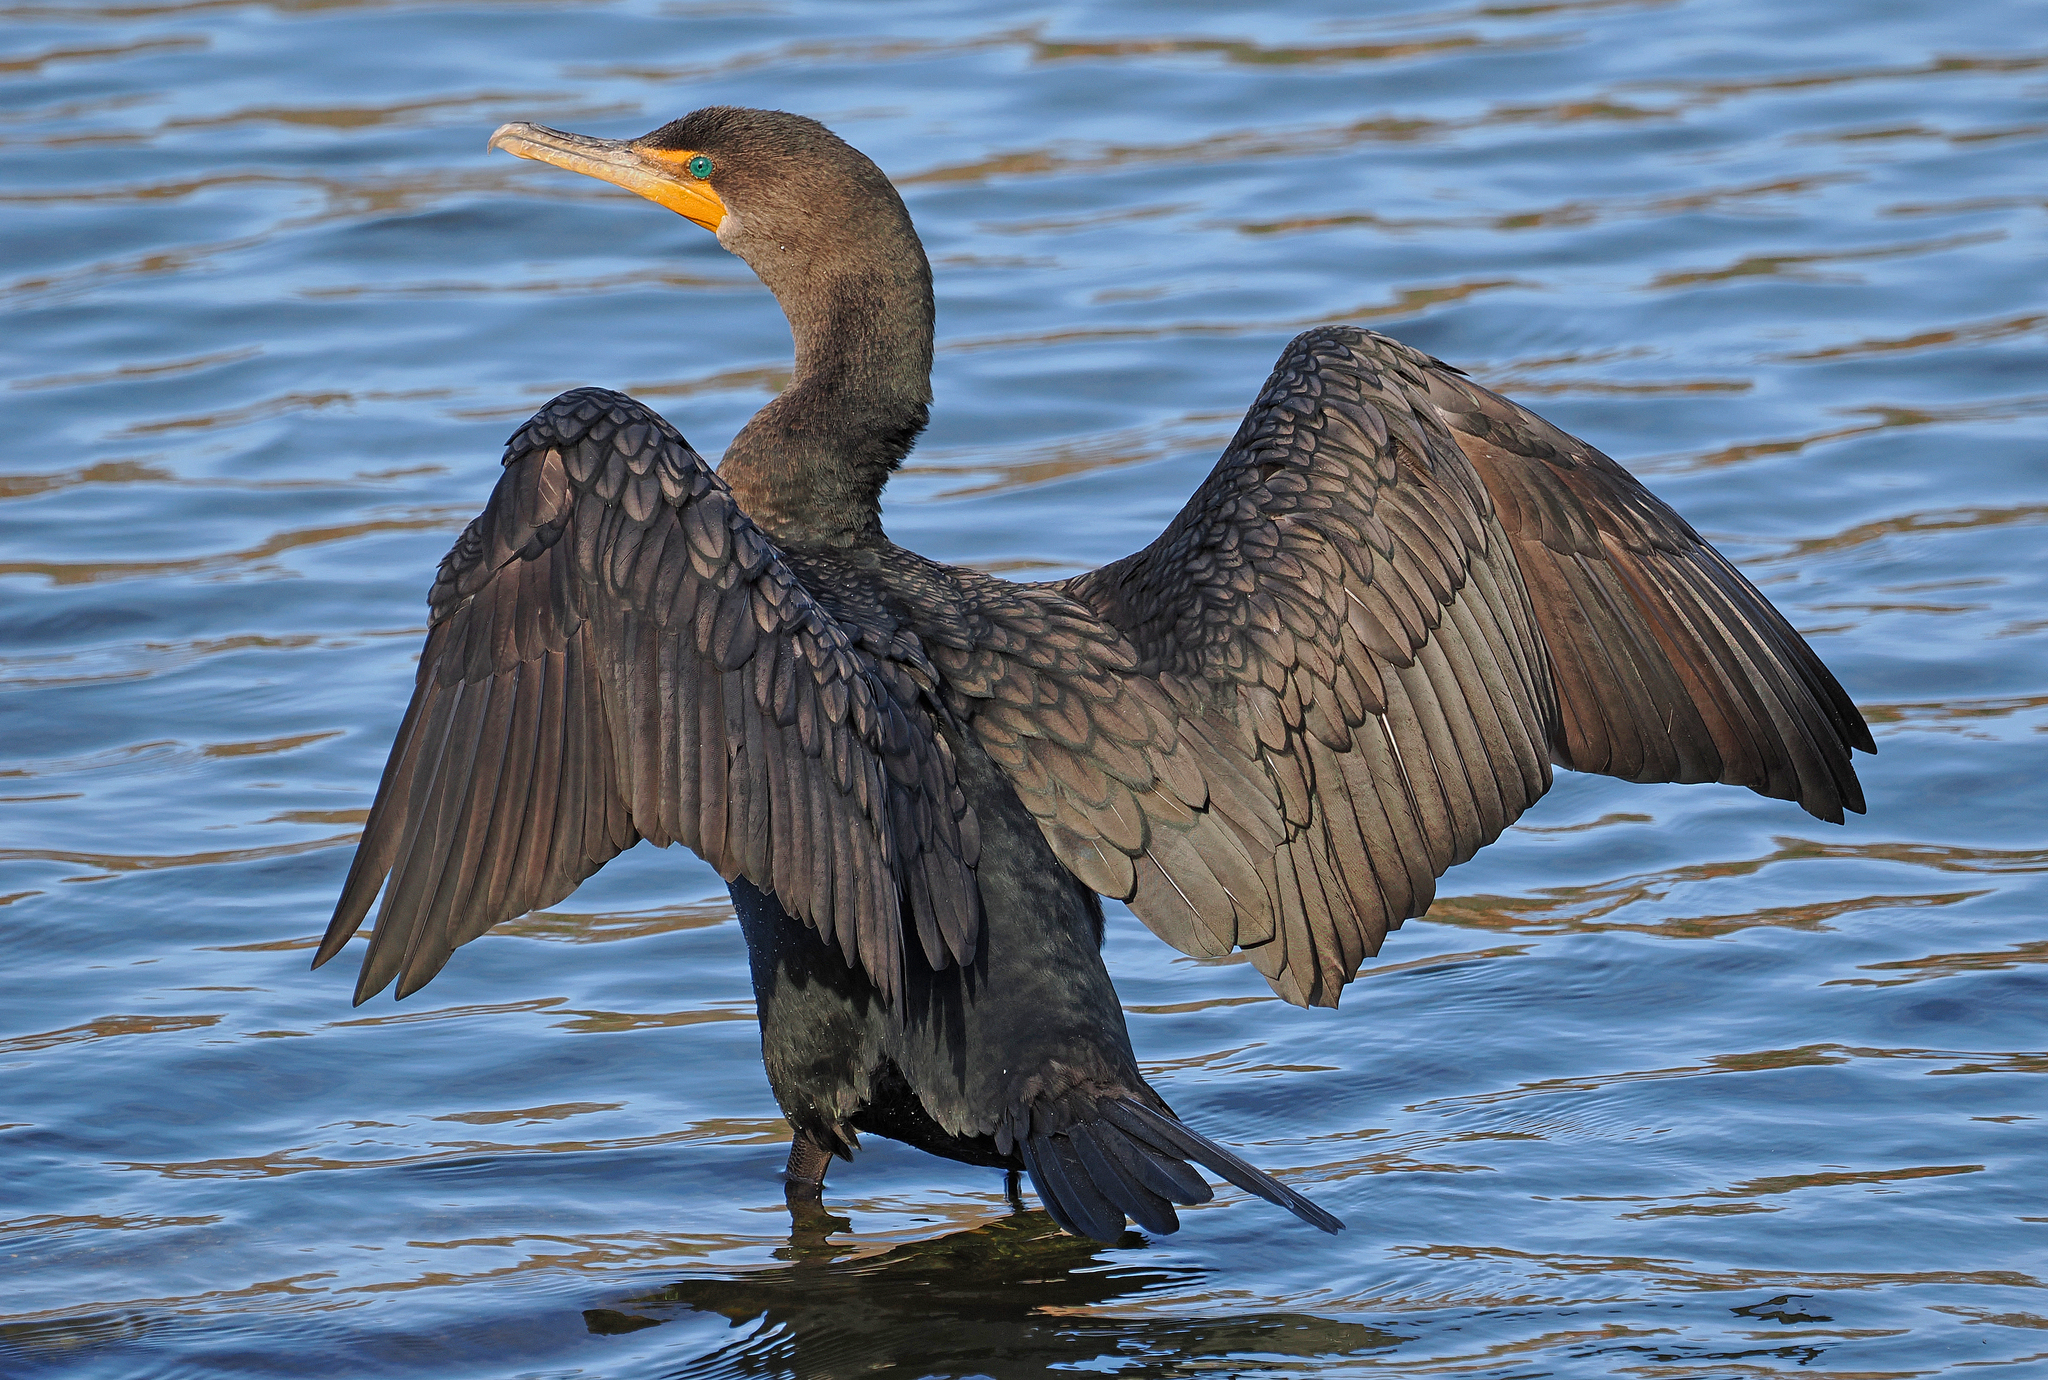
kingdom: Animalia
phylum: Chordata
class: Aves
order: Suliformes
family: Phalacrocoracidae
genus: Phalacrocorax
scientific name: Phalacrocorax auritus
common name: Double-crested cormorant
